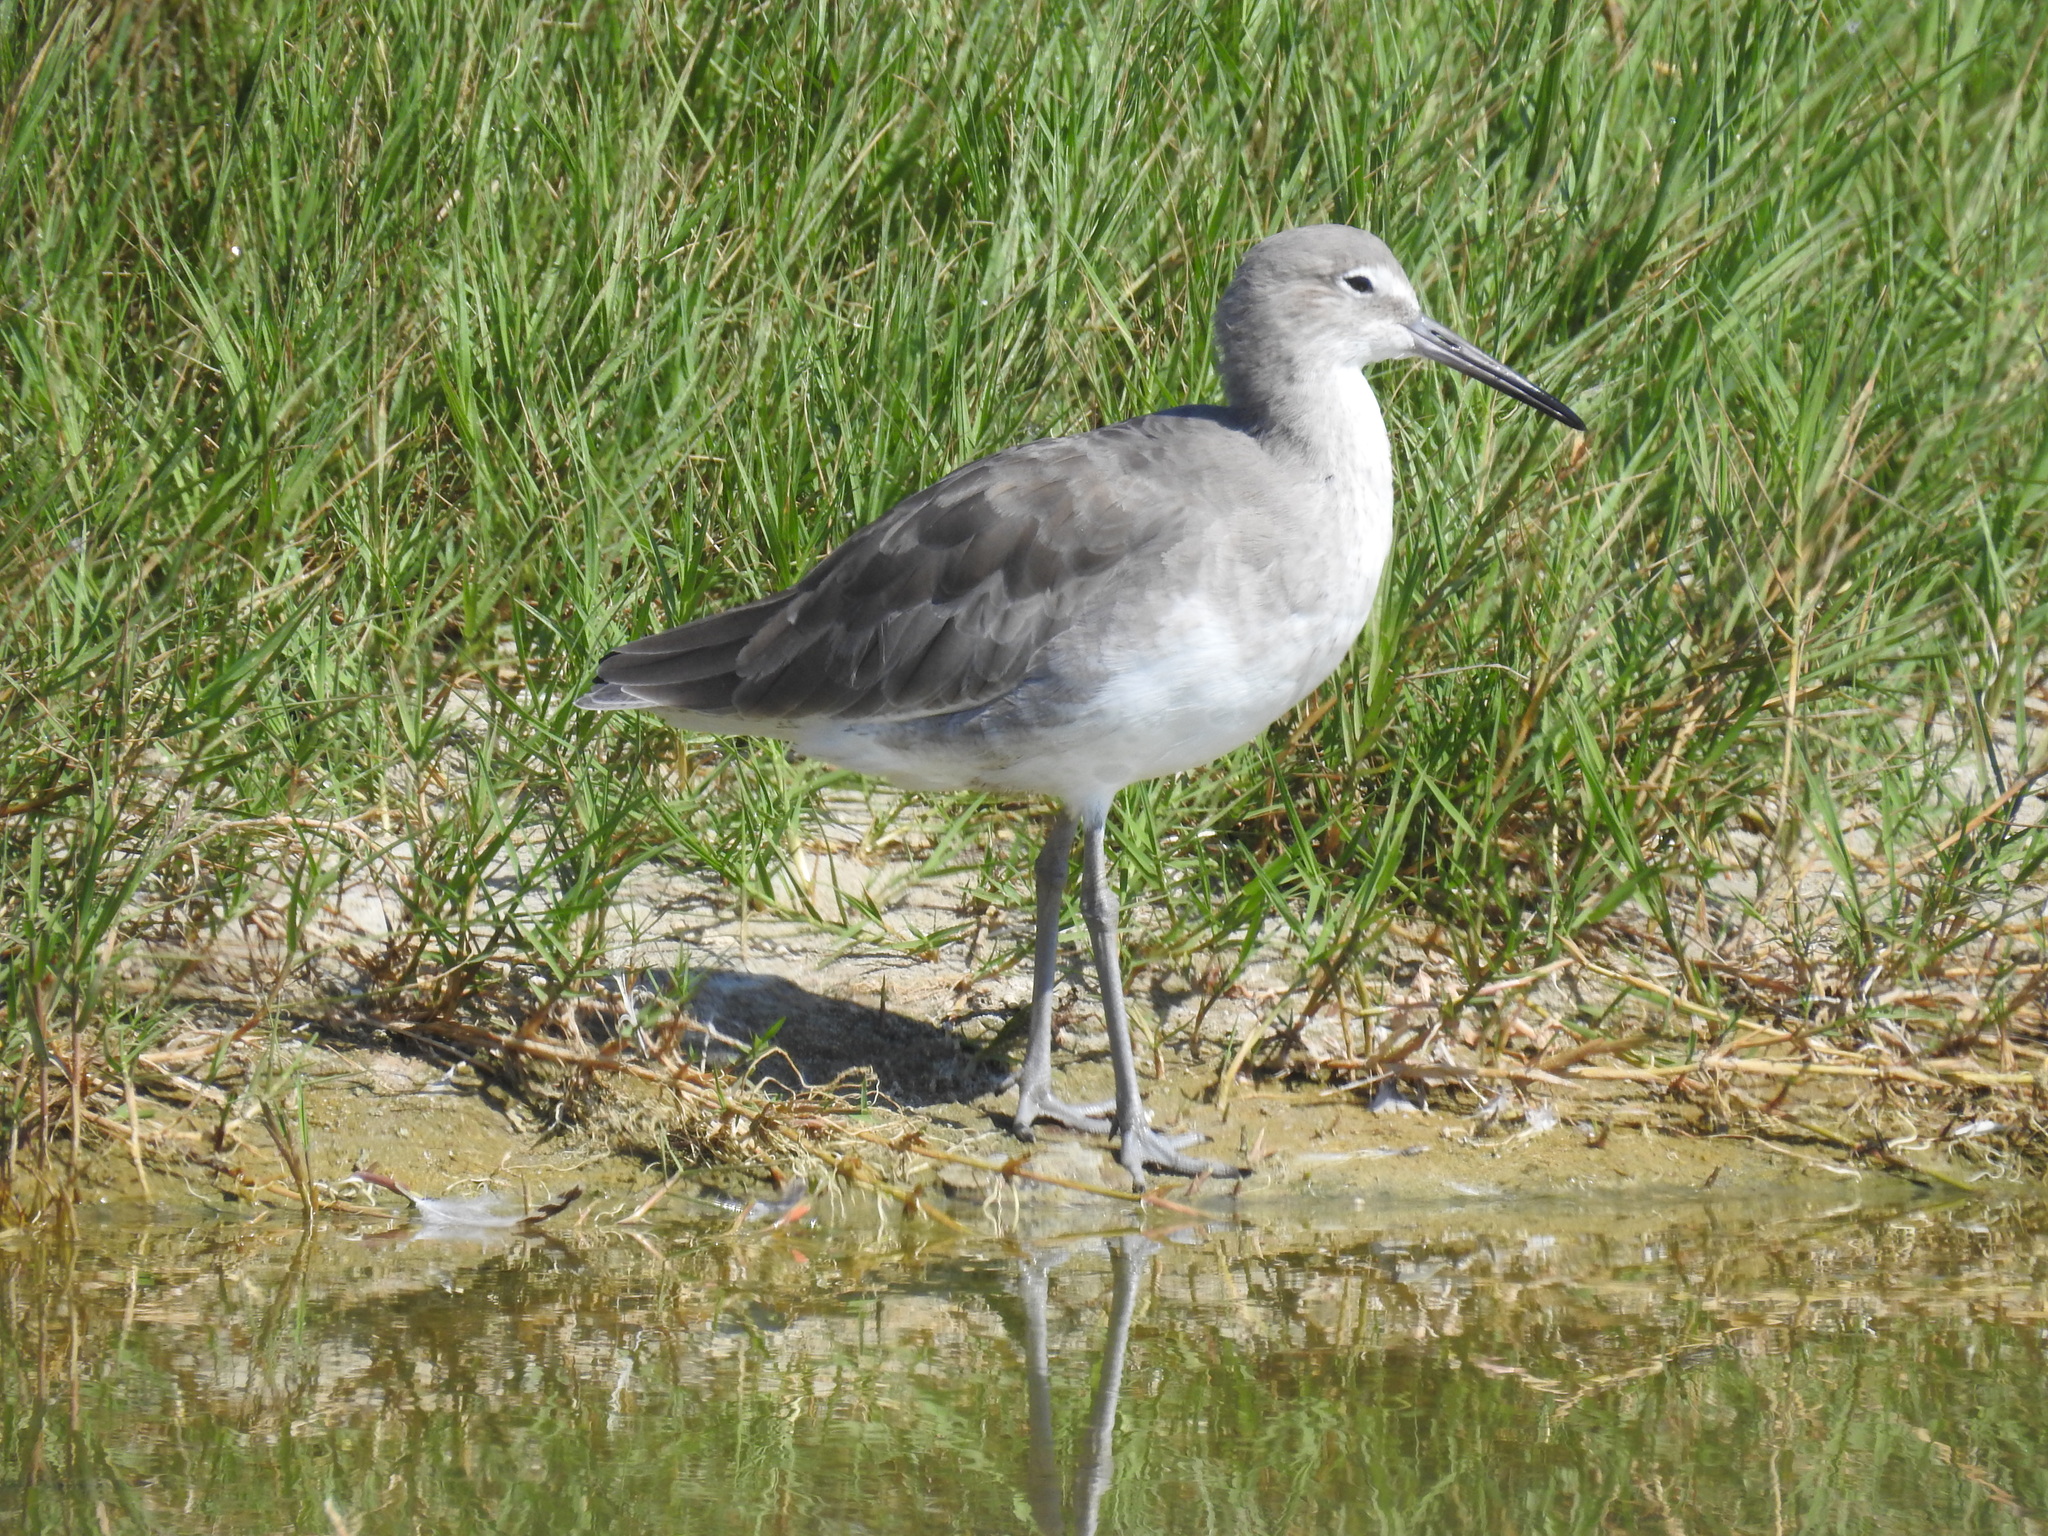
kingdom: Animalia
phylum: Chordata
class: Aves
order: Charadriiformes
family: Scolopacidae
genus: Tringa
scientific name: Tringa semipalmata
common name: Willet
